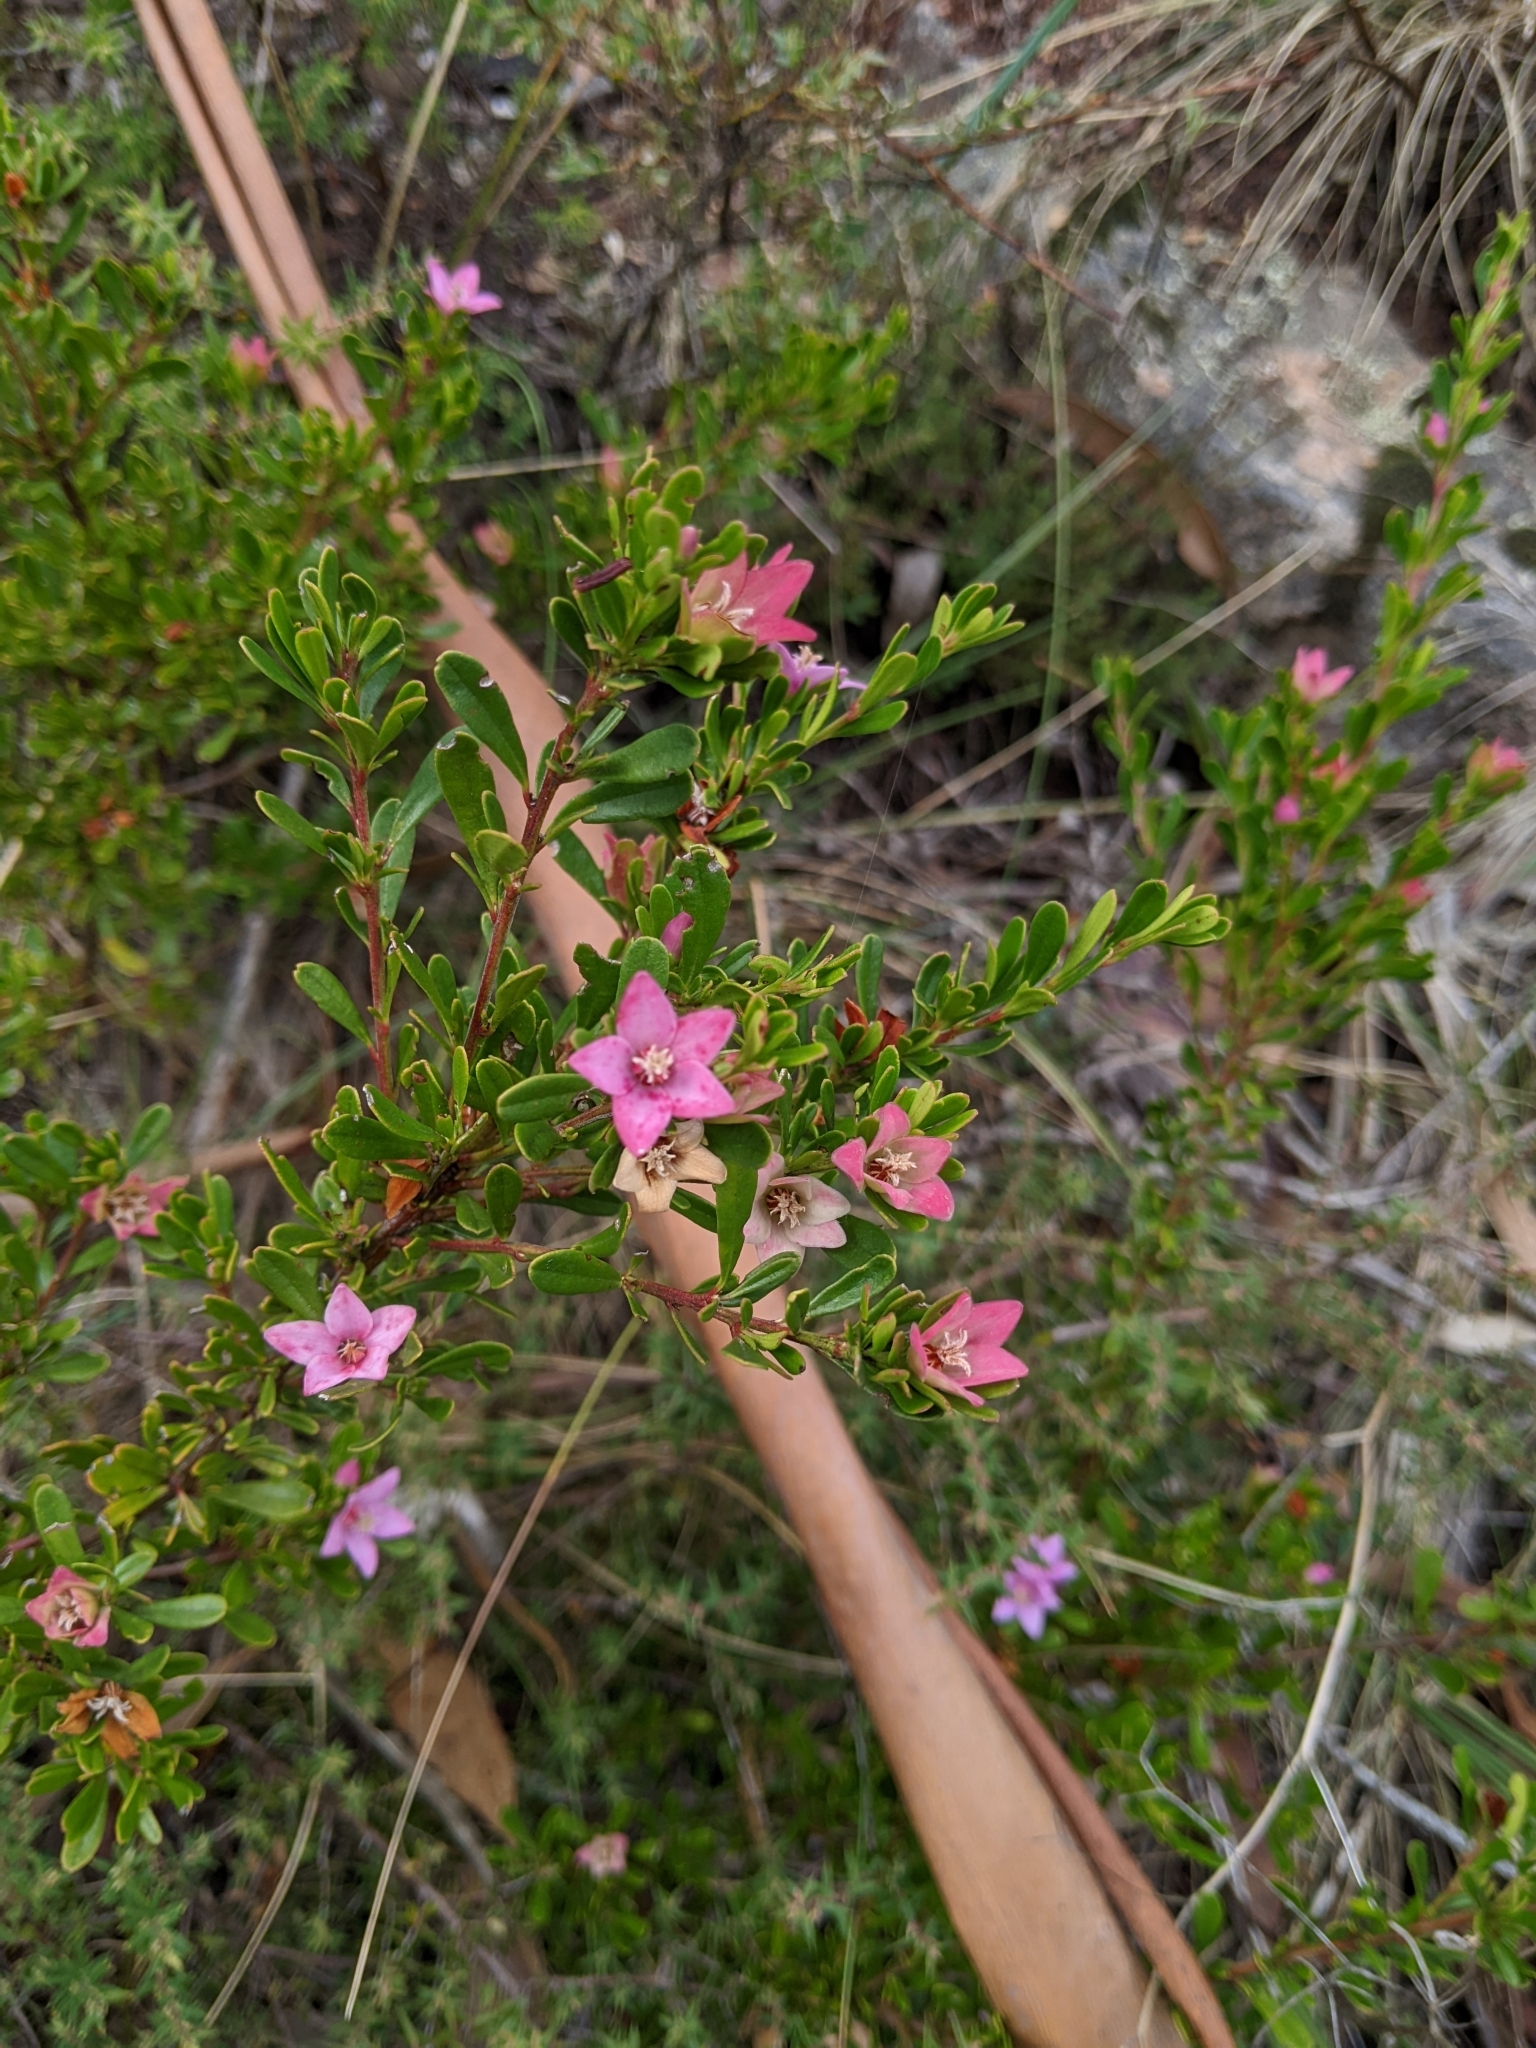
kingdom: Plantae
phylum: Tracheophyta
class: Magnoliopsida
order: Sapindales
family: Rutaceae
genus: Crowea
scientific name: Crowea exalata
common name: Small crowea
